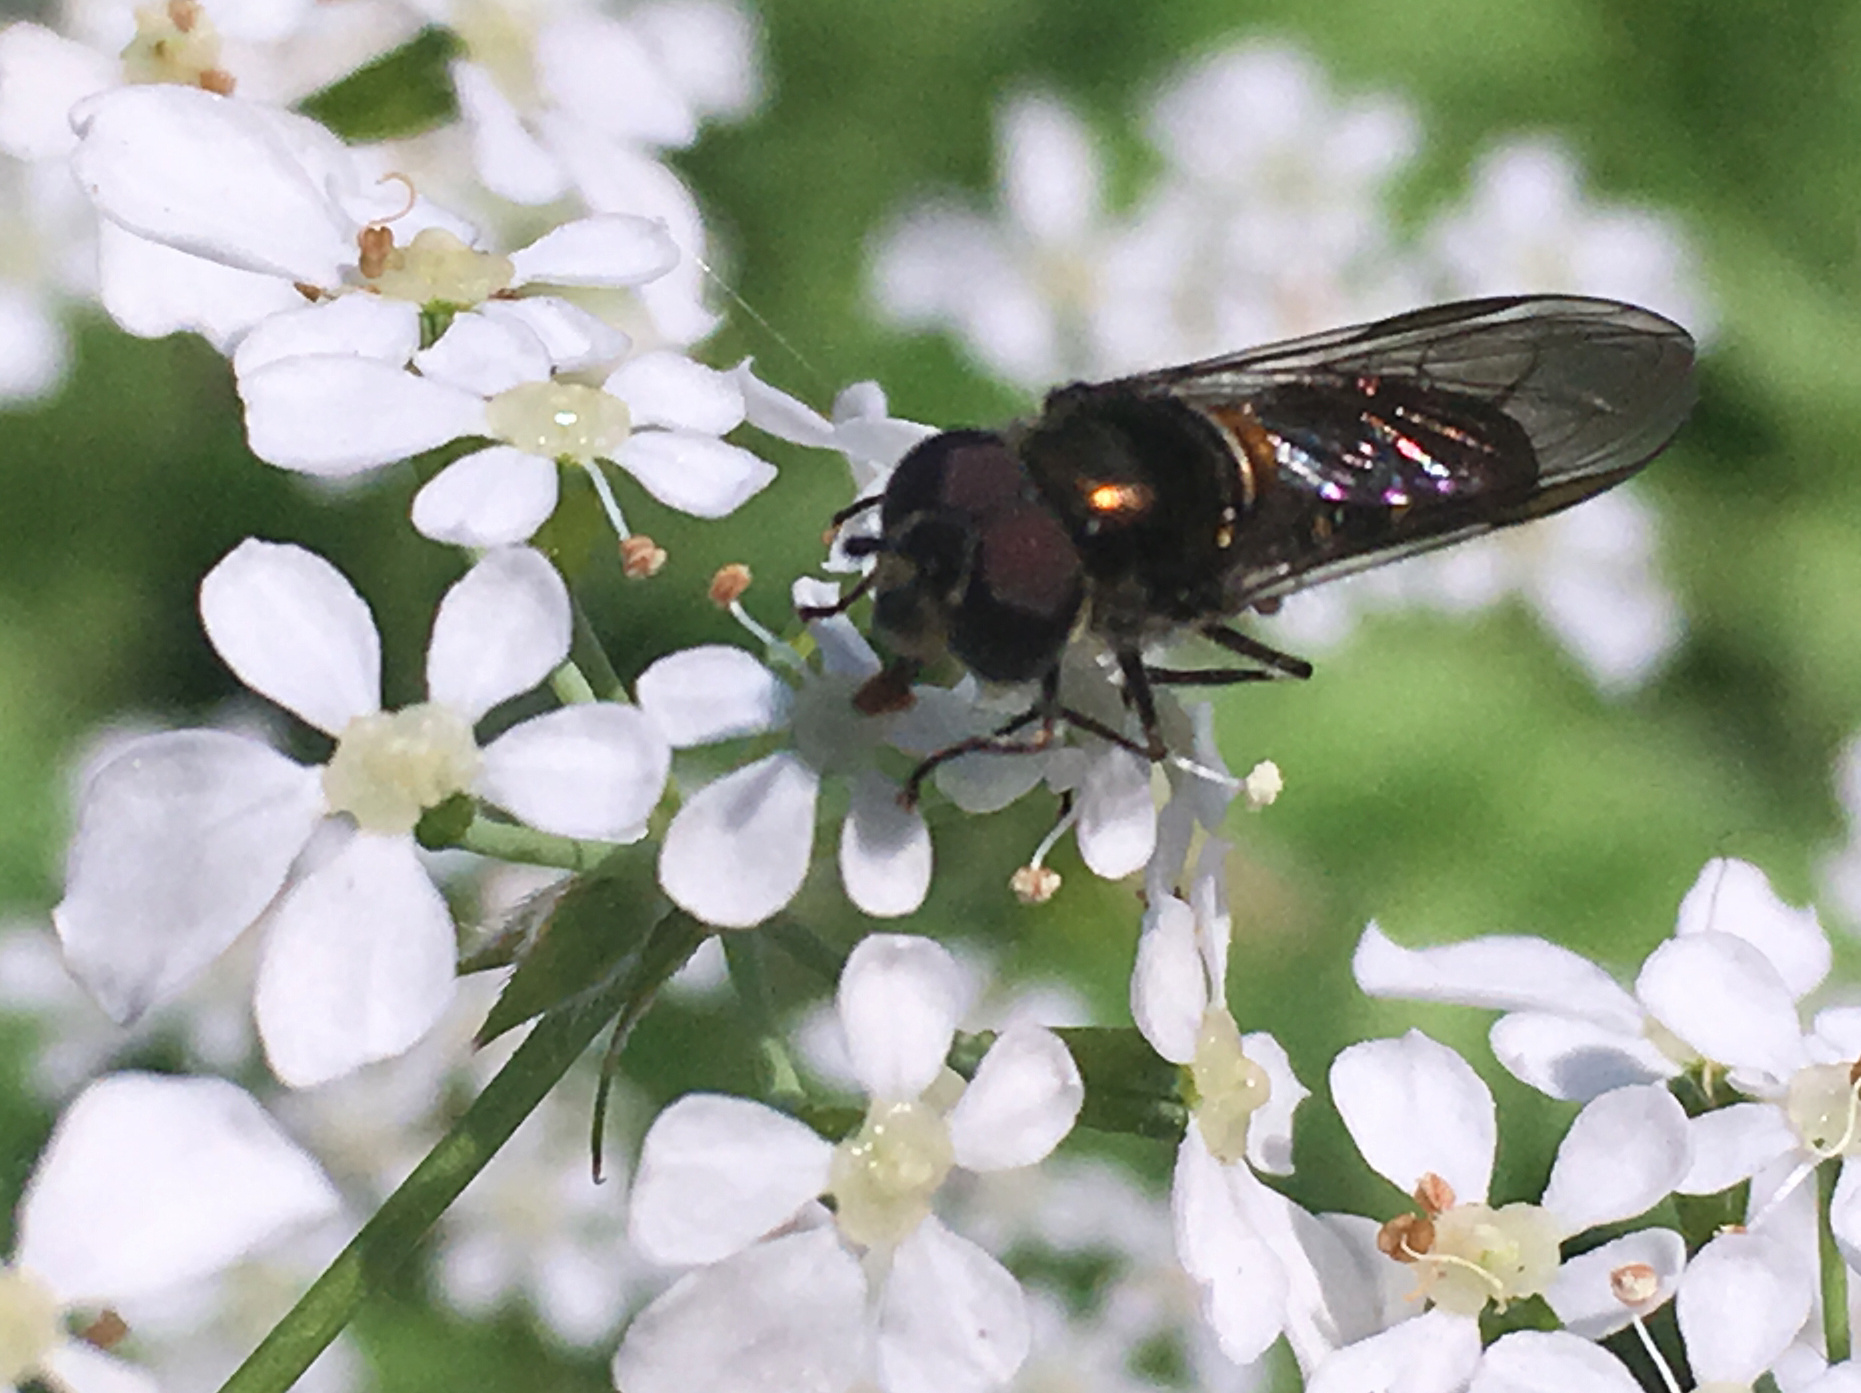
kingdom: Animalia
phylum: Arthropoda
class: Insecta
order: Diptera
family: Syrphidae
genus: Melangyna
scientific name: Melangyna novaezelandiae
